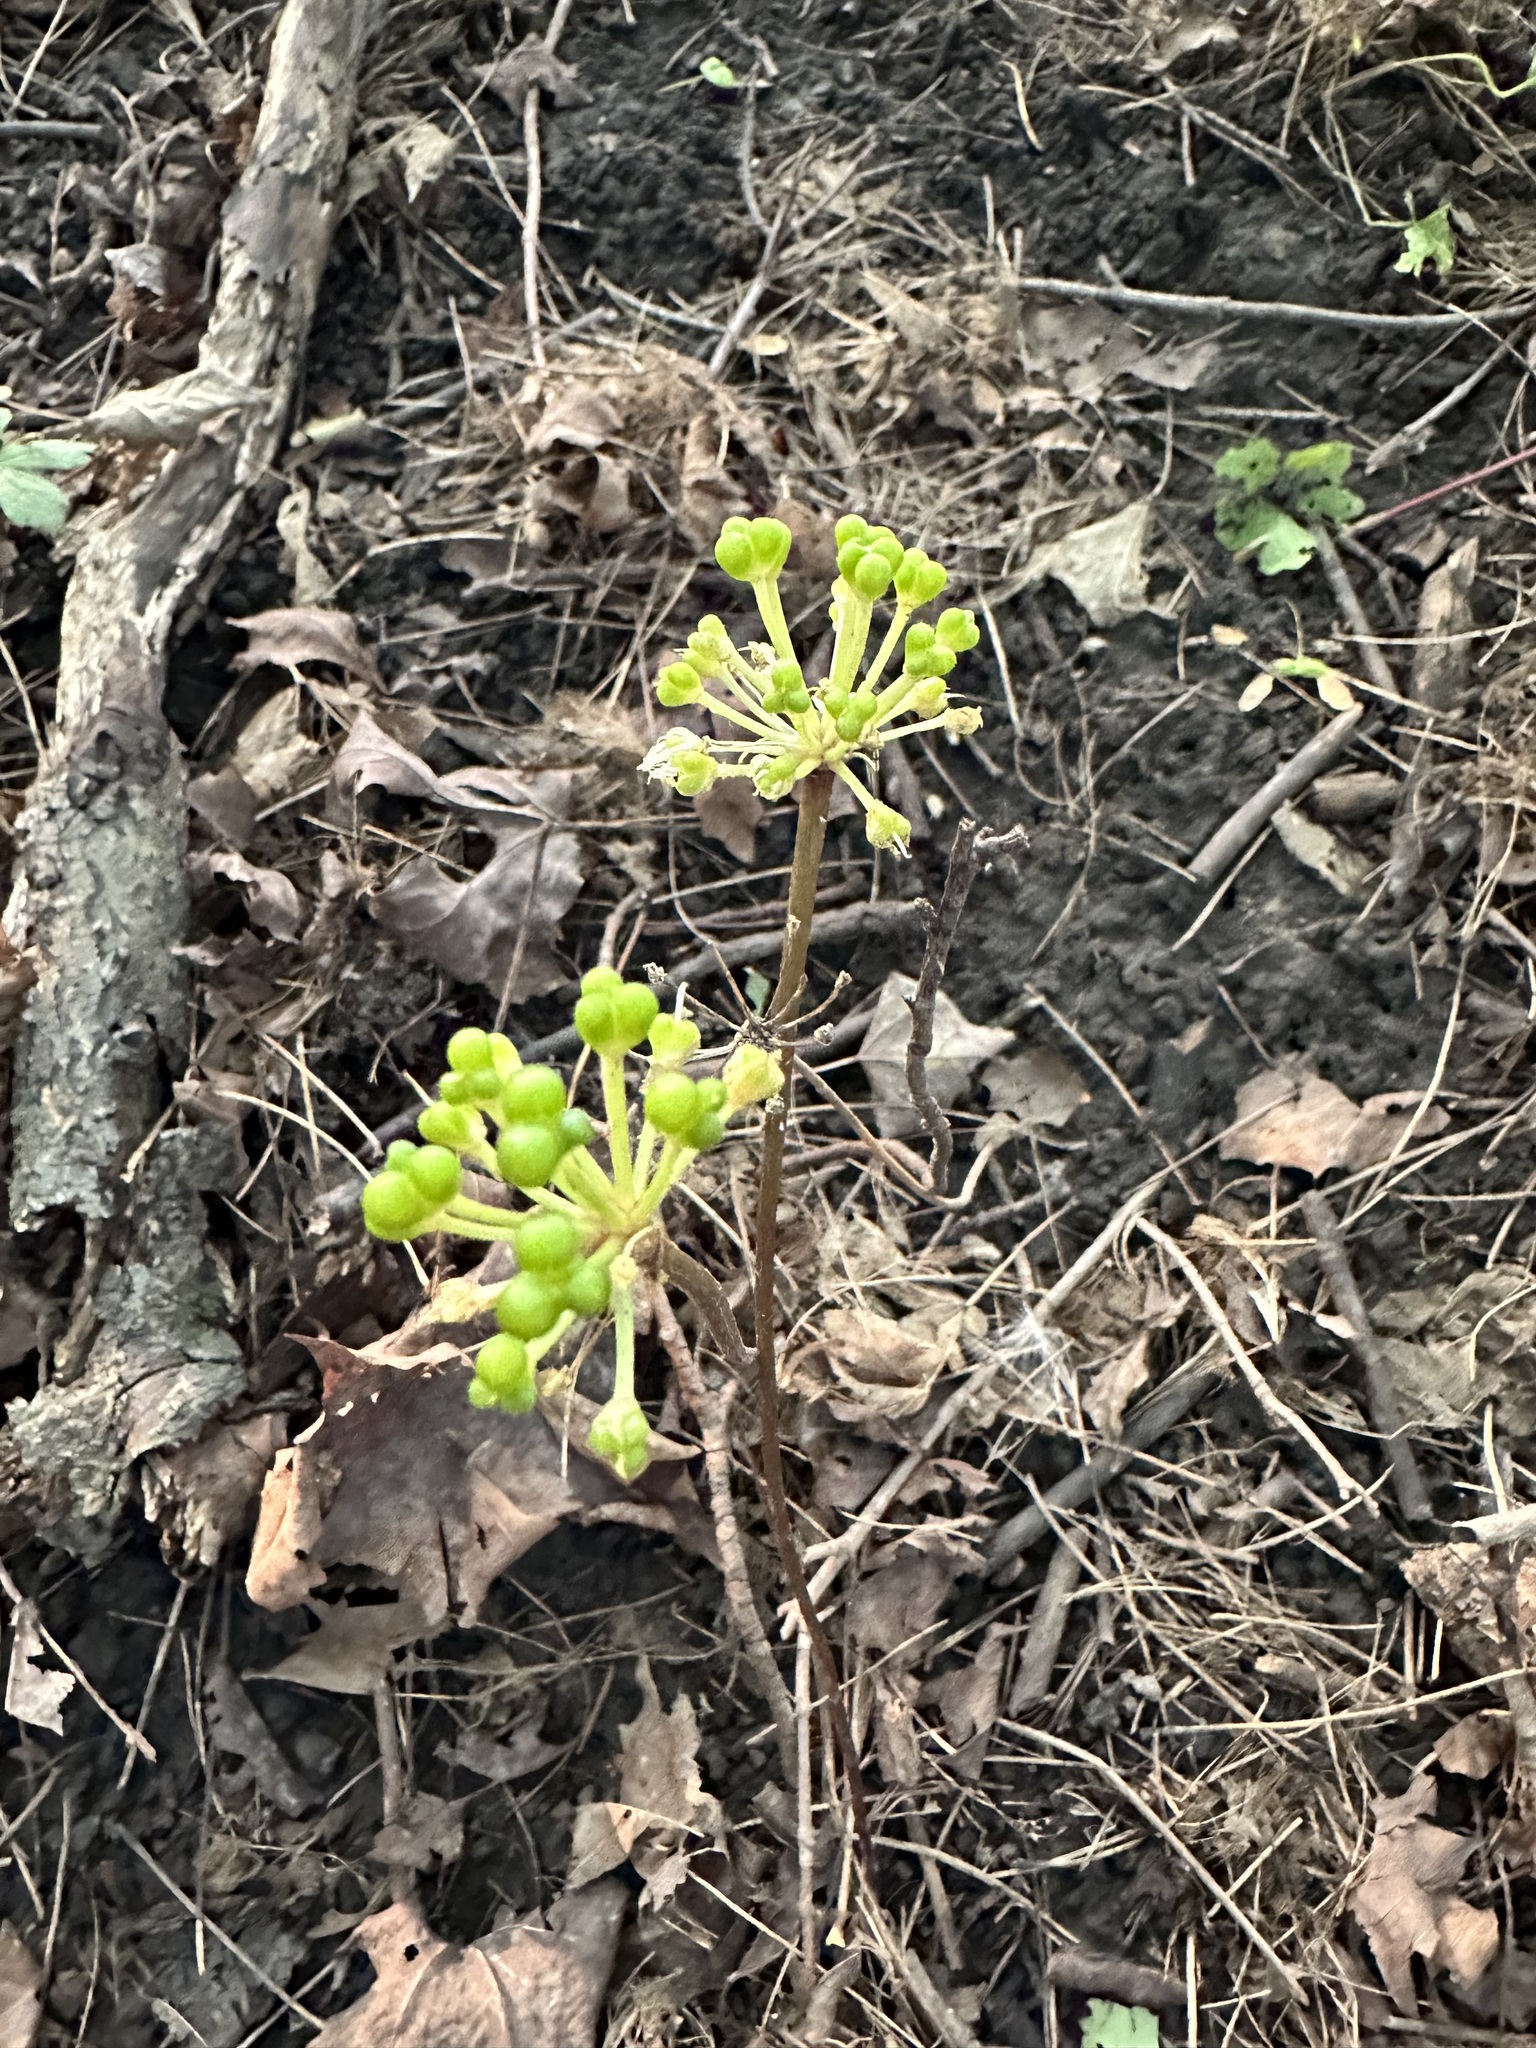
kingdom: Plantae
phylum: Tracheophyta
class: Liliopsida
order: Asparagales
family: Amaryllidaceae
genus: Allium
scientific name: Allium tricoccum
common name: Ramp
